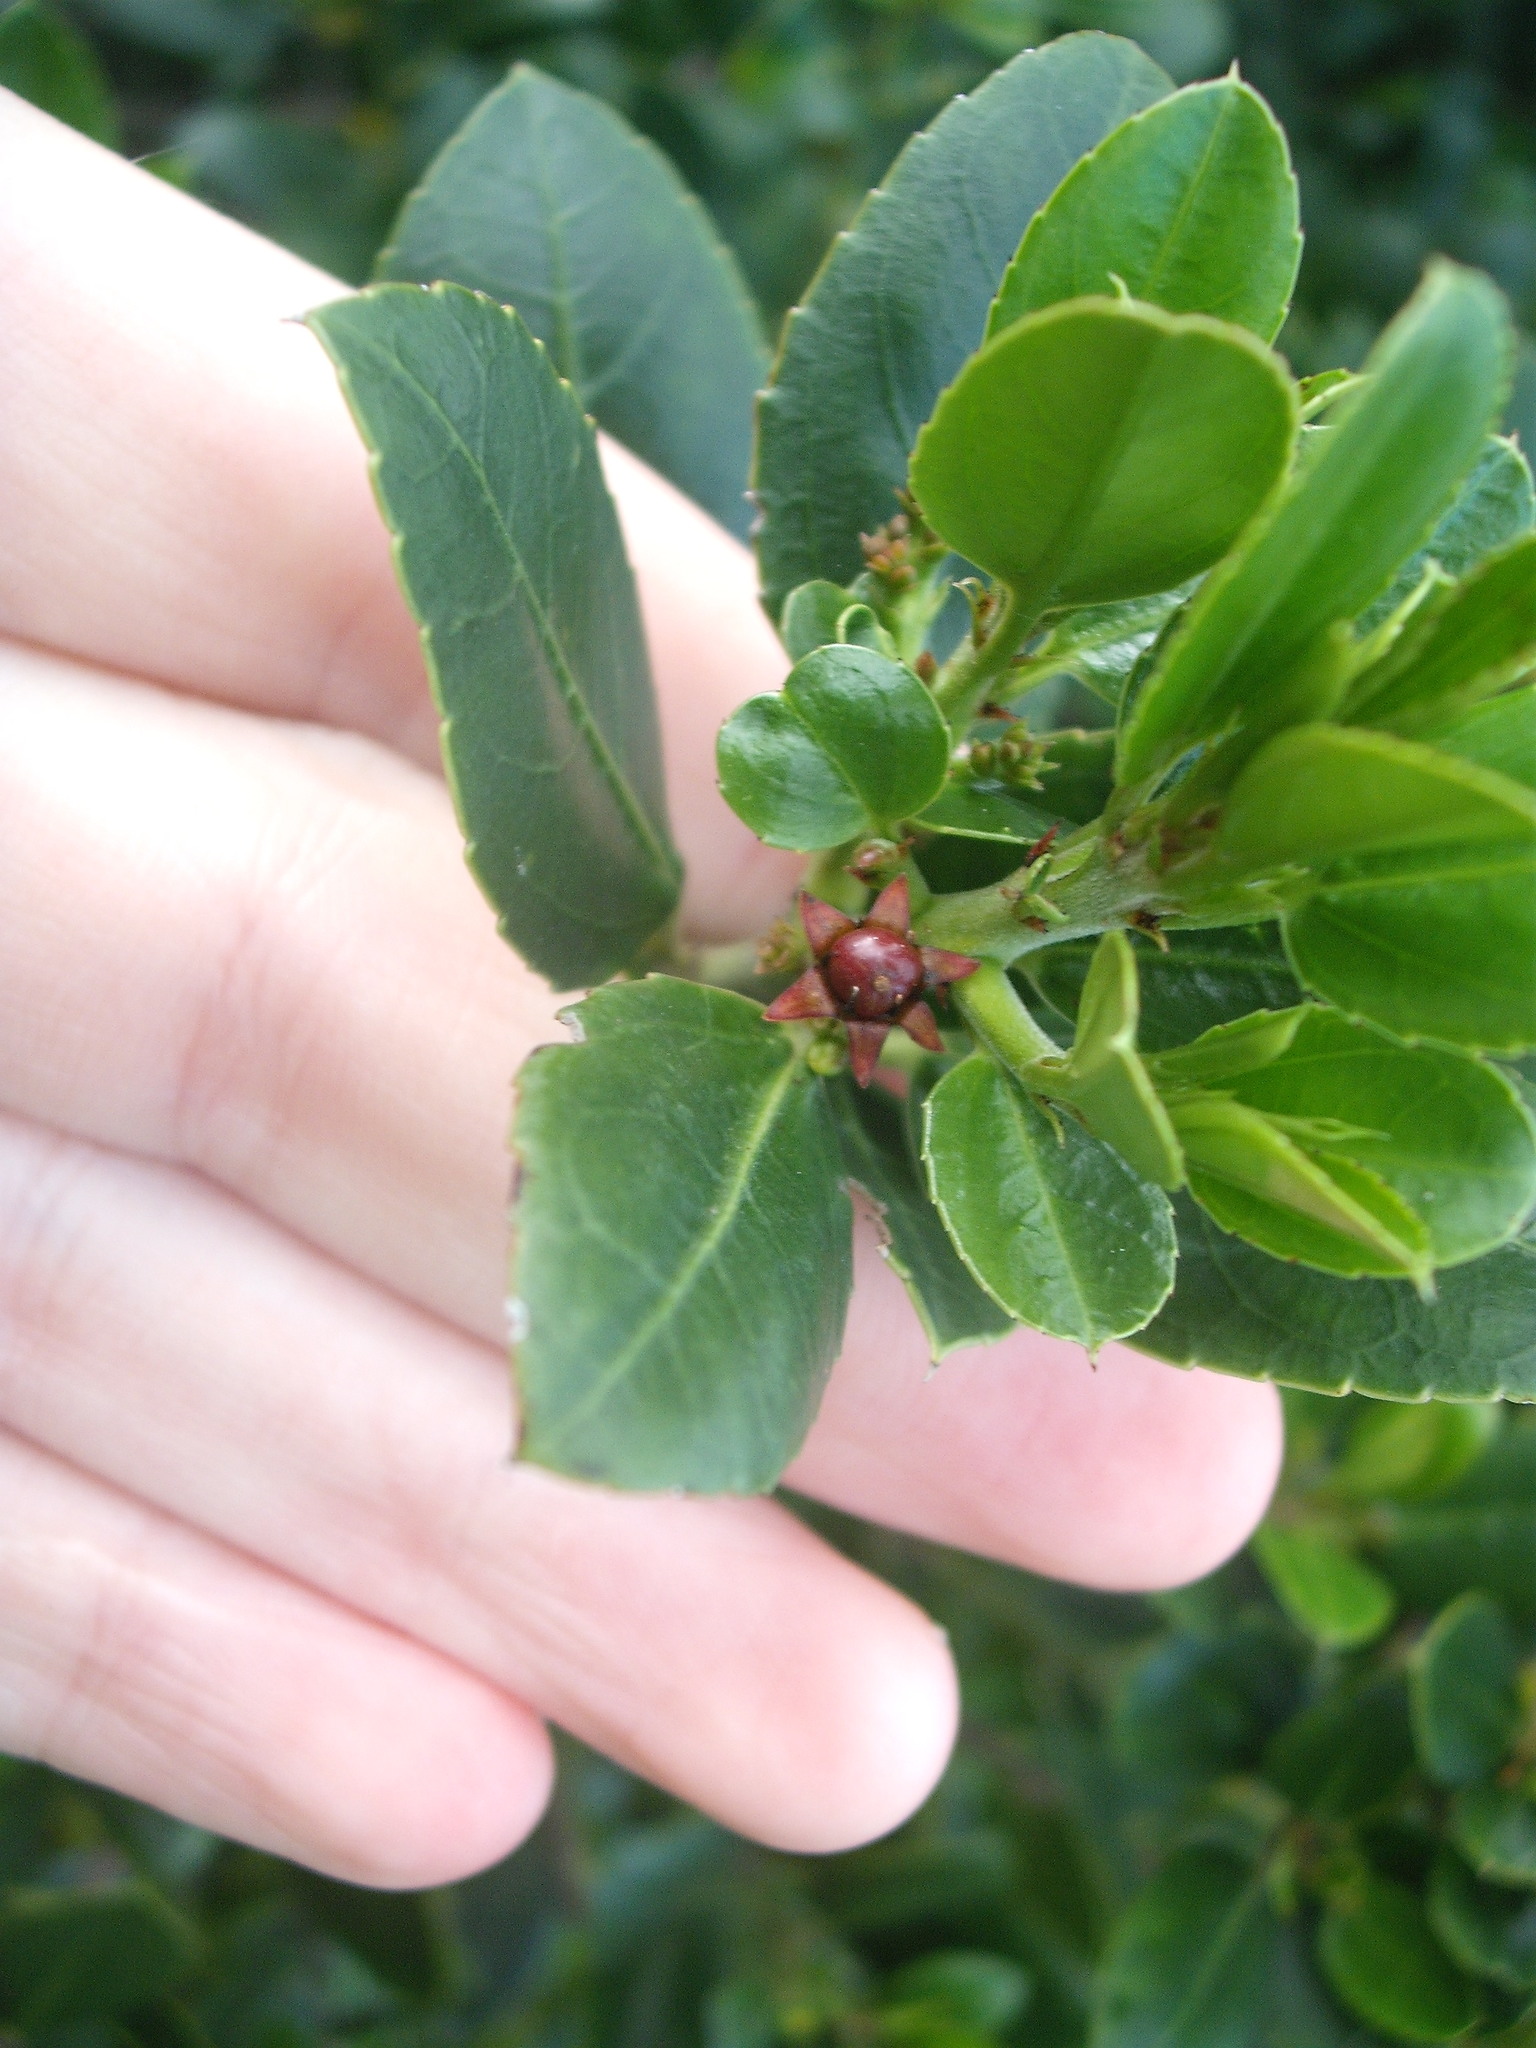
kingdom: Plantae
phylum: Tracheophyta
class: Magnoliopsida
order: Rosales
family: Rhamnaceae
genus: Rhamnus
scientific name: Rhamnus alaternus
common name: Mediterranean buckthorn
